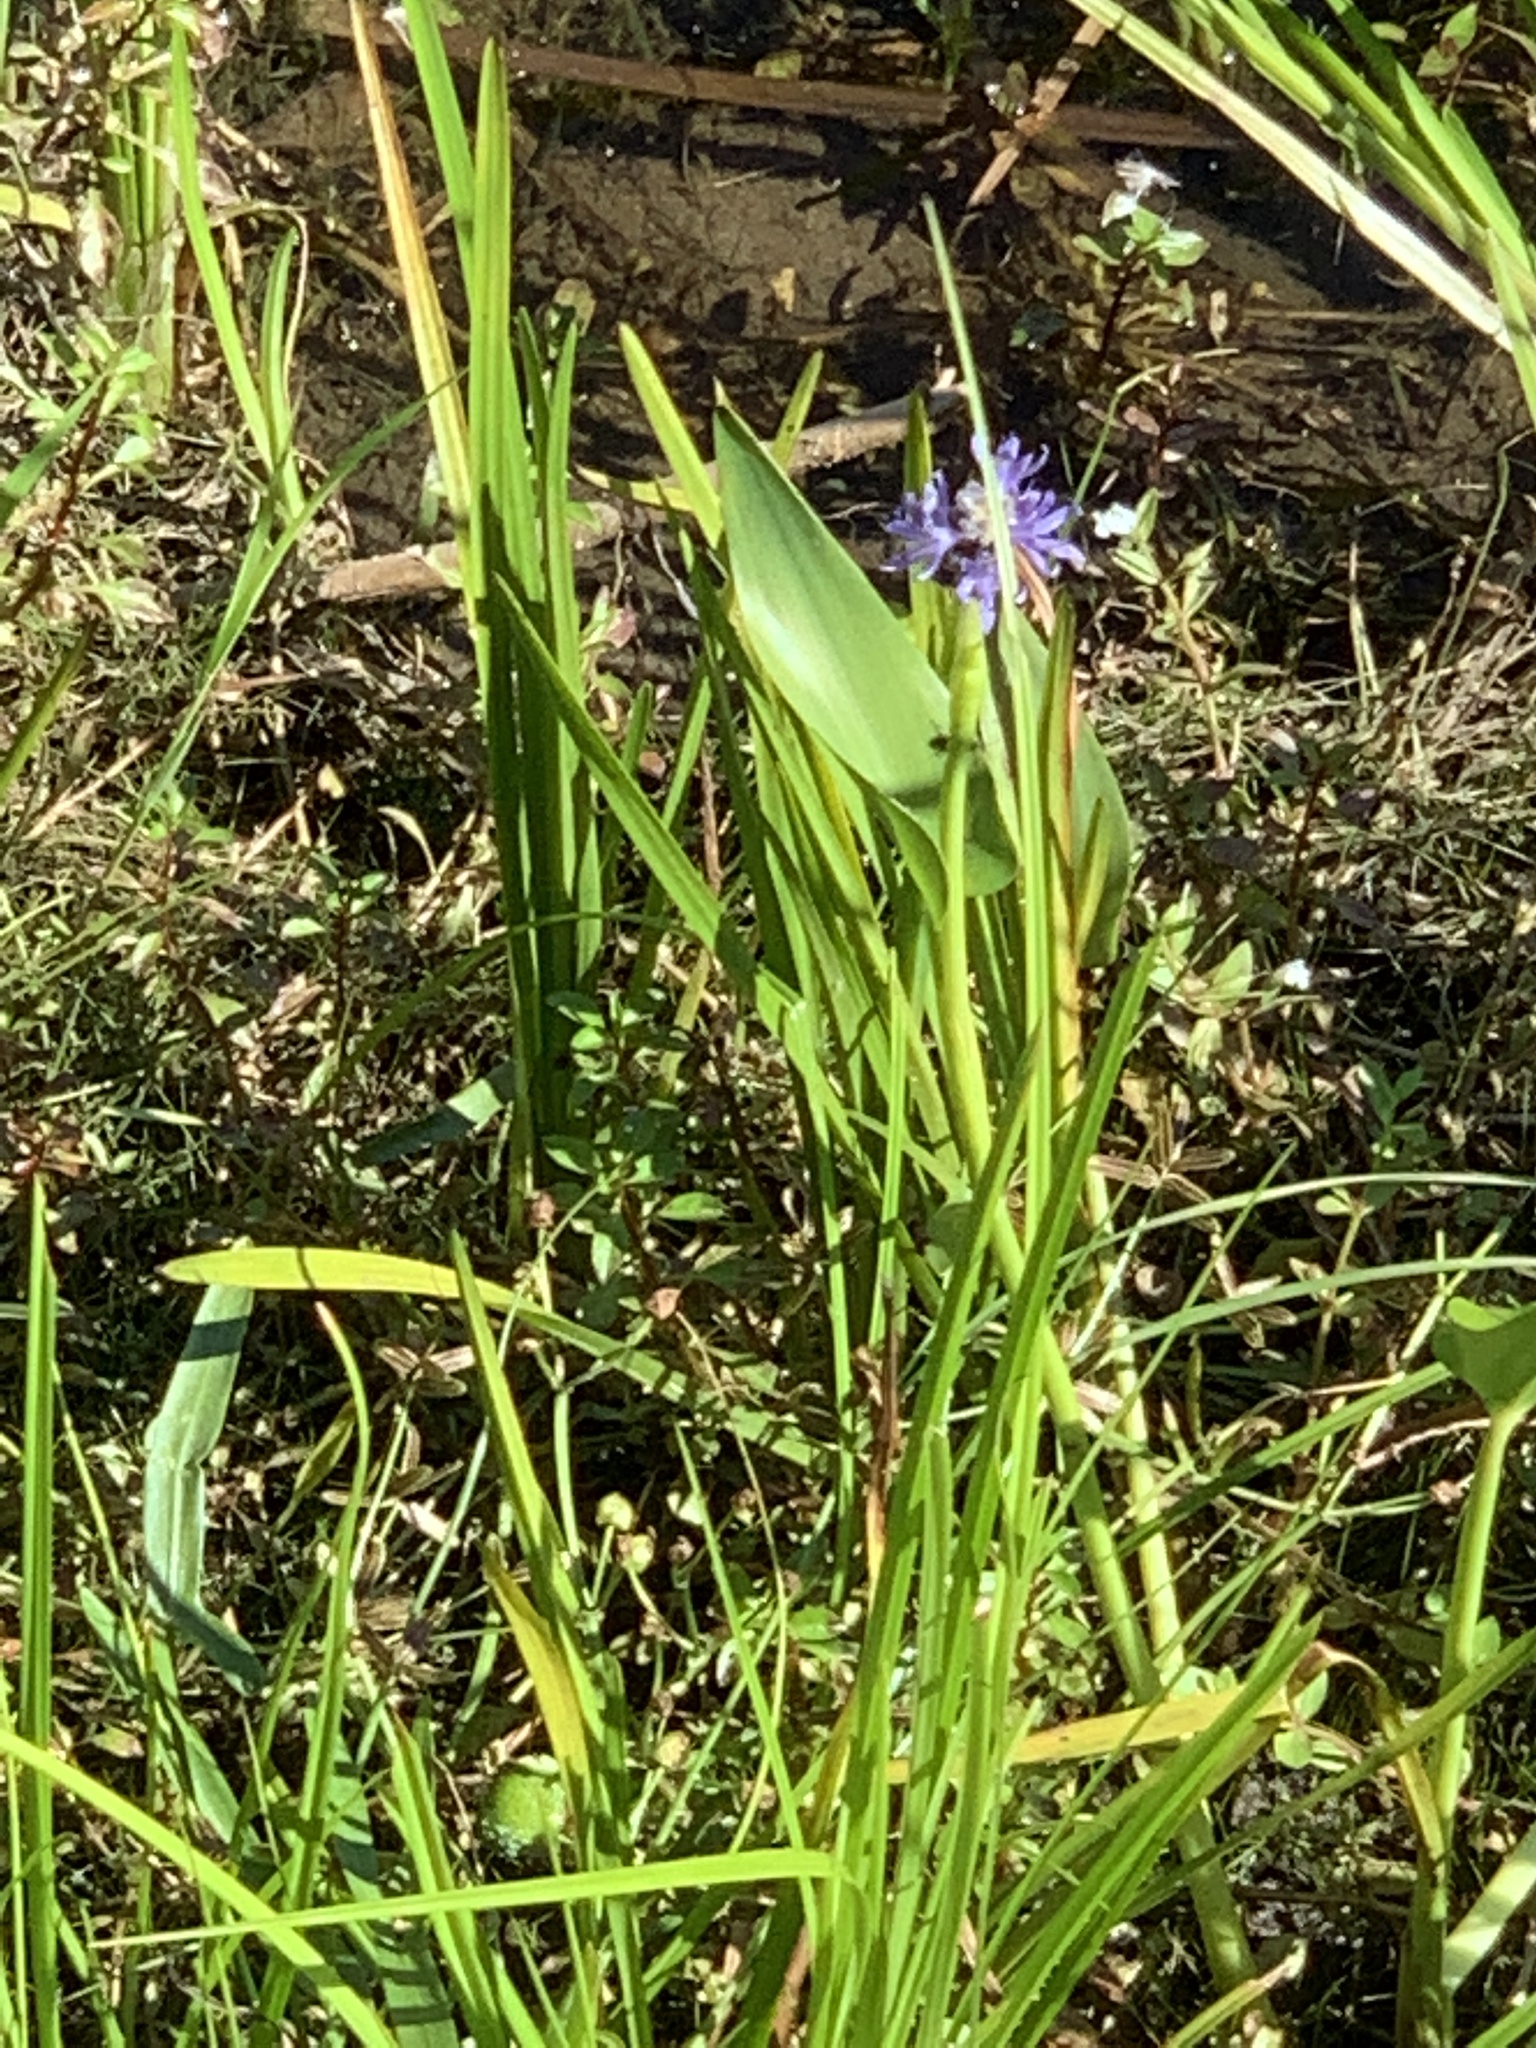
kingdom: Plantae
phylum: Tracheophyta
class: Liliopsida
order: Commelinales
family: Pontederiaceae
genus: Pontederia
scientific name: Pontederia cordata
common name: Pickerelweed
